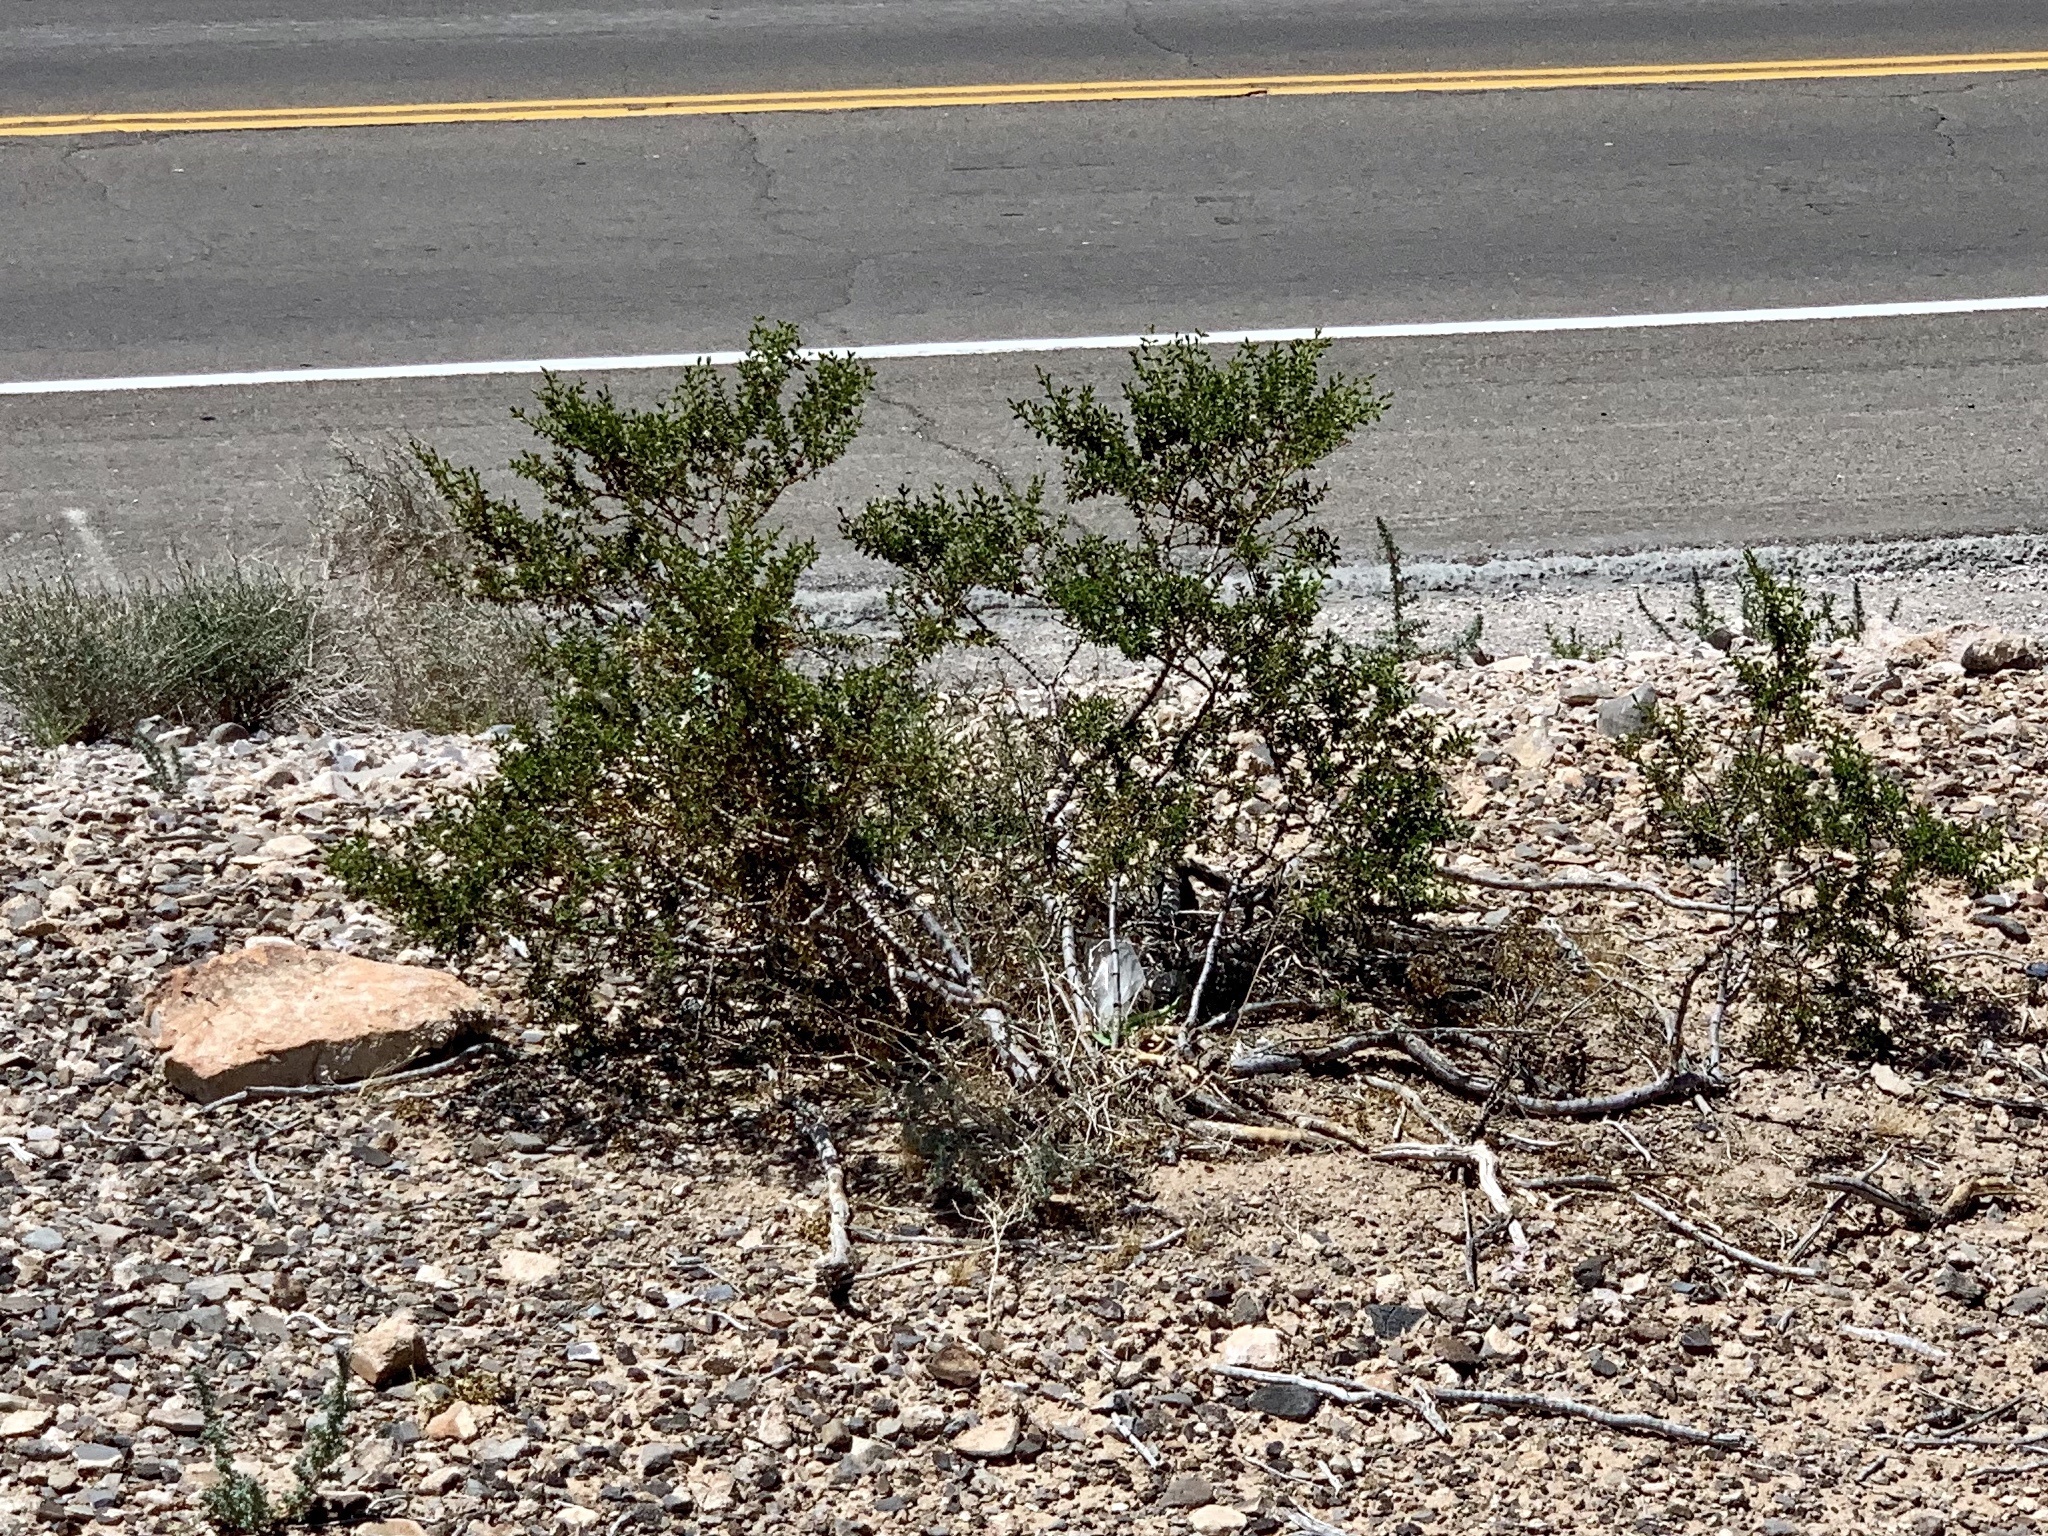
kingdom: Plantae
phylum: Tracheophyta
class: Magnoliopsida
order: Zygophyllales
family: Zygophyllaceae
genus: Larrea
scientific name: Larrea tridentata
